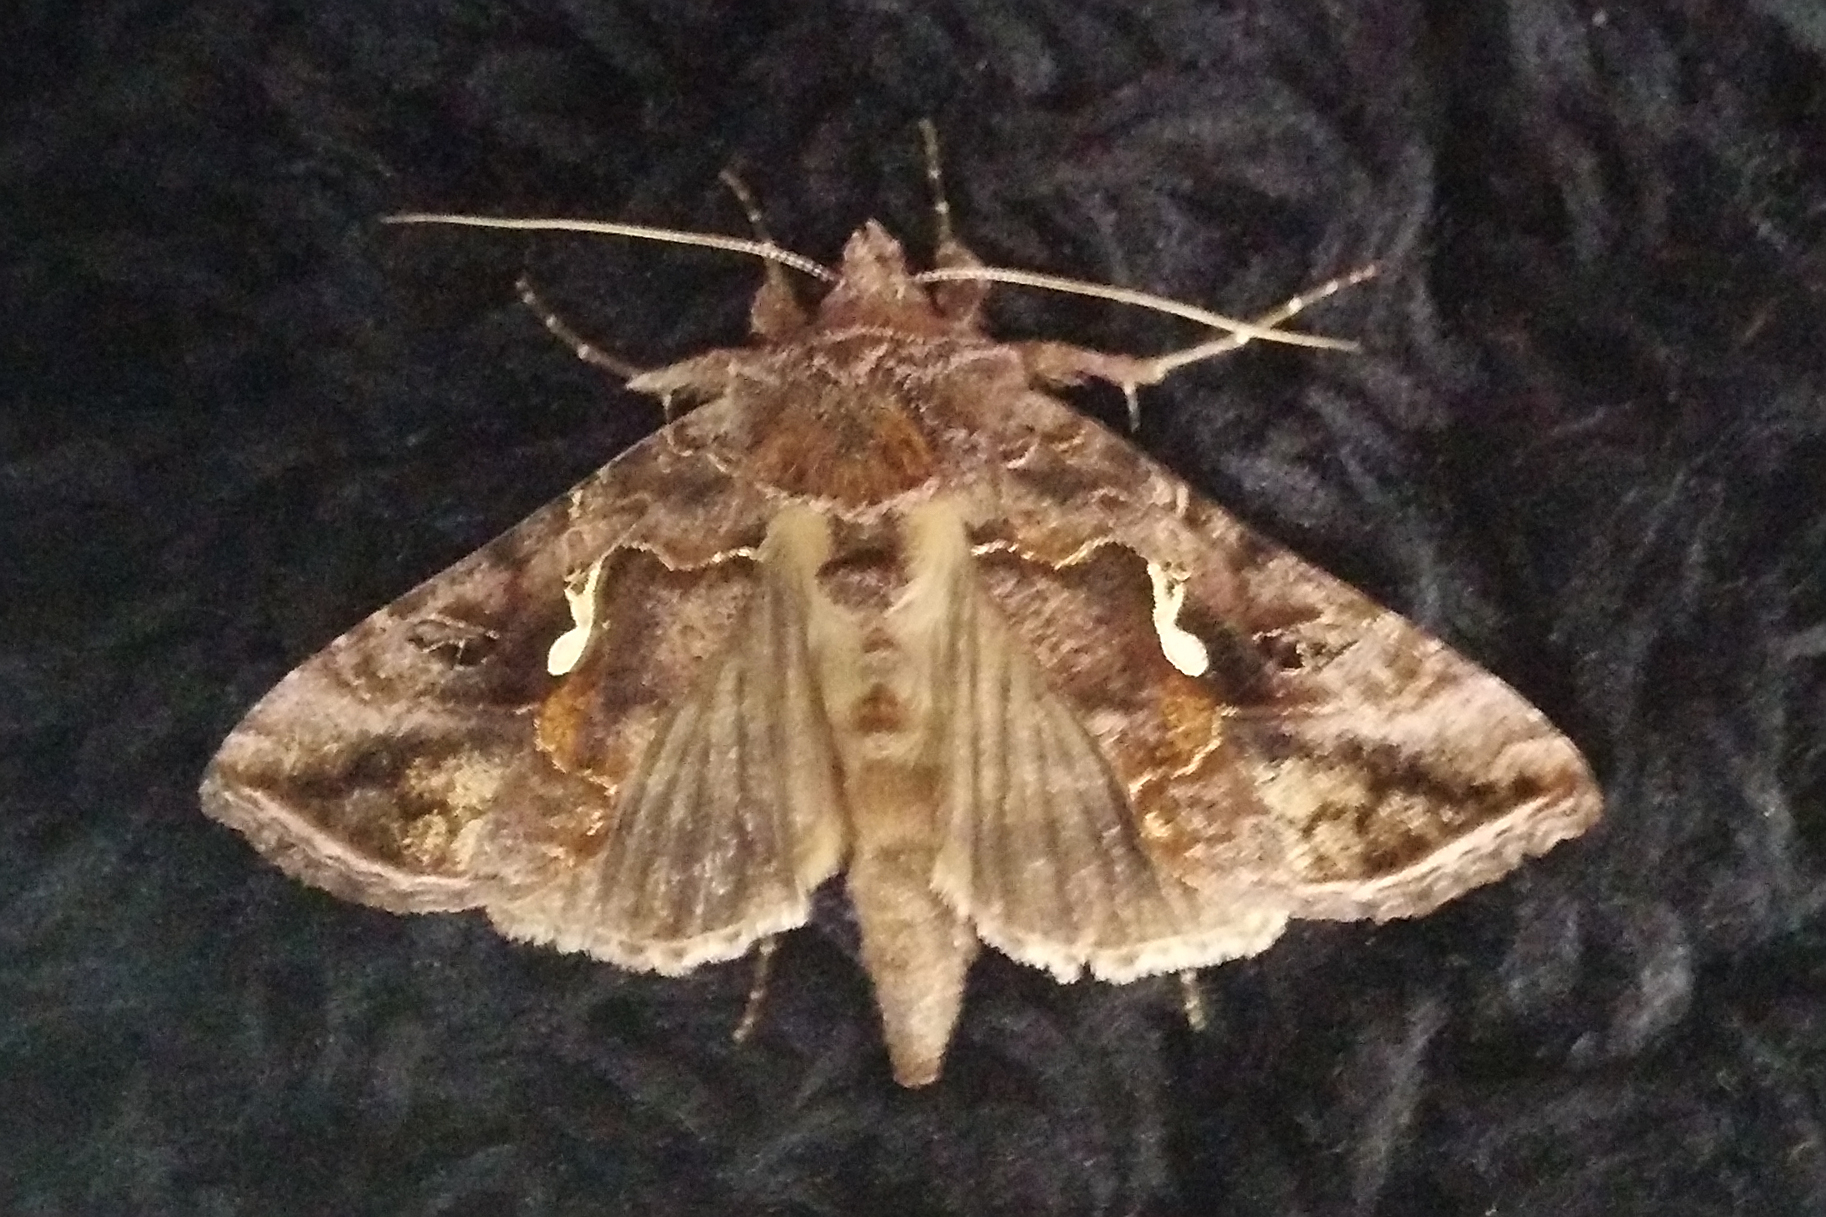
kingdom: Animalia
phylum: Arthropoda
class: Insecta
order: Lepidoptera
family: Noctuidae
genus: Autographa
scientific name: Autographa precationis
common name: Common looper moth
